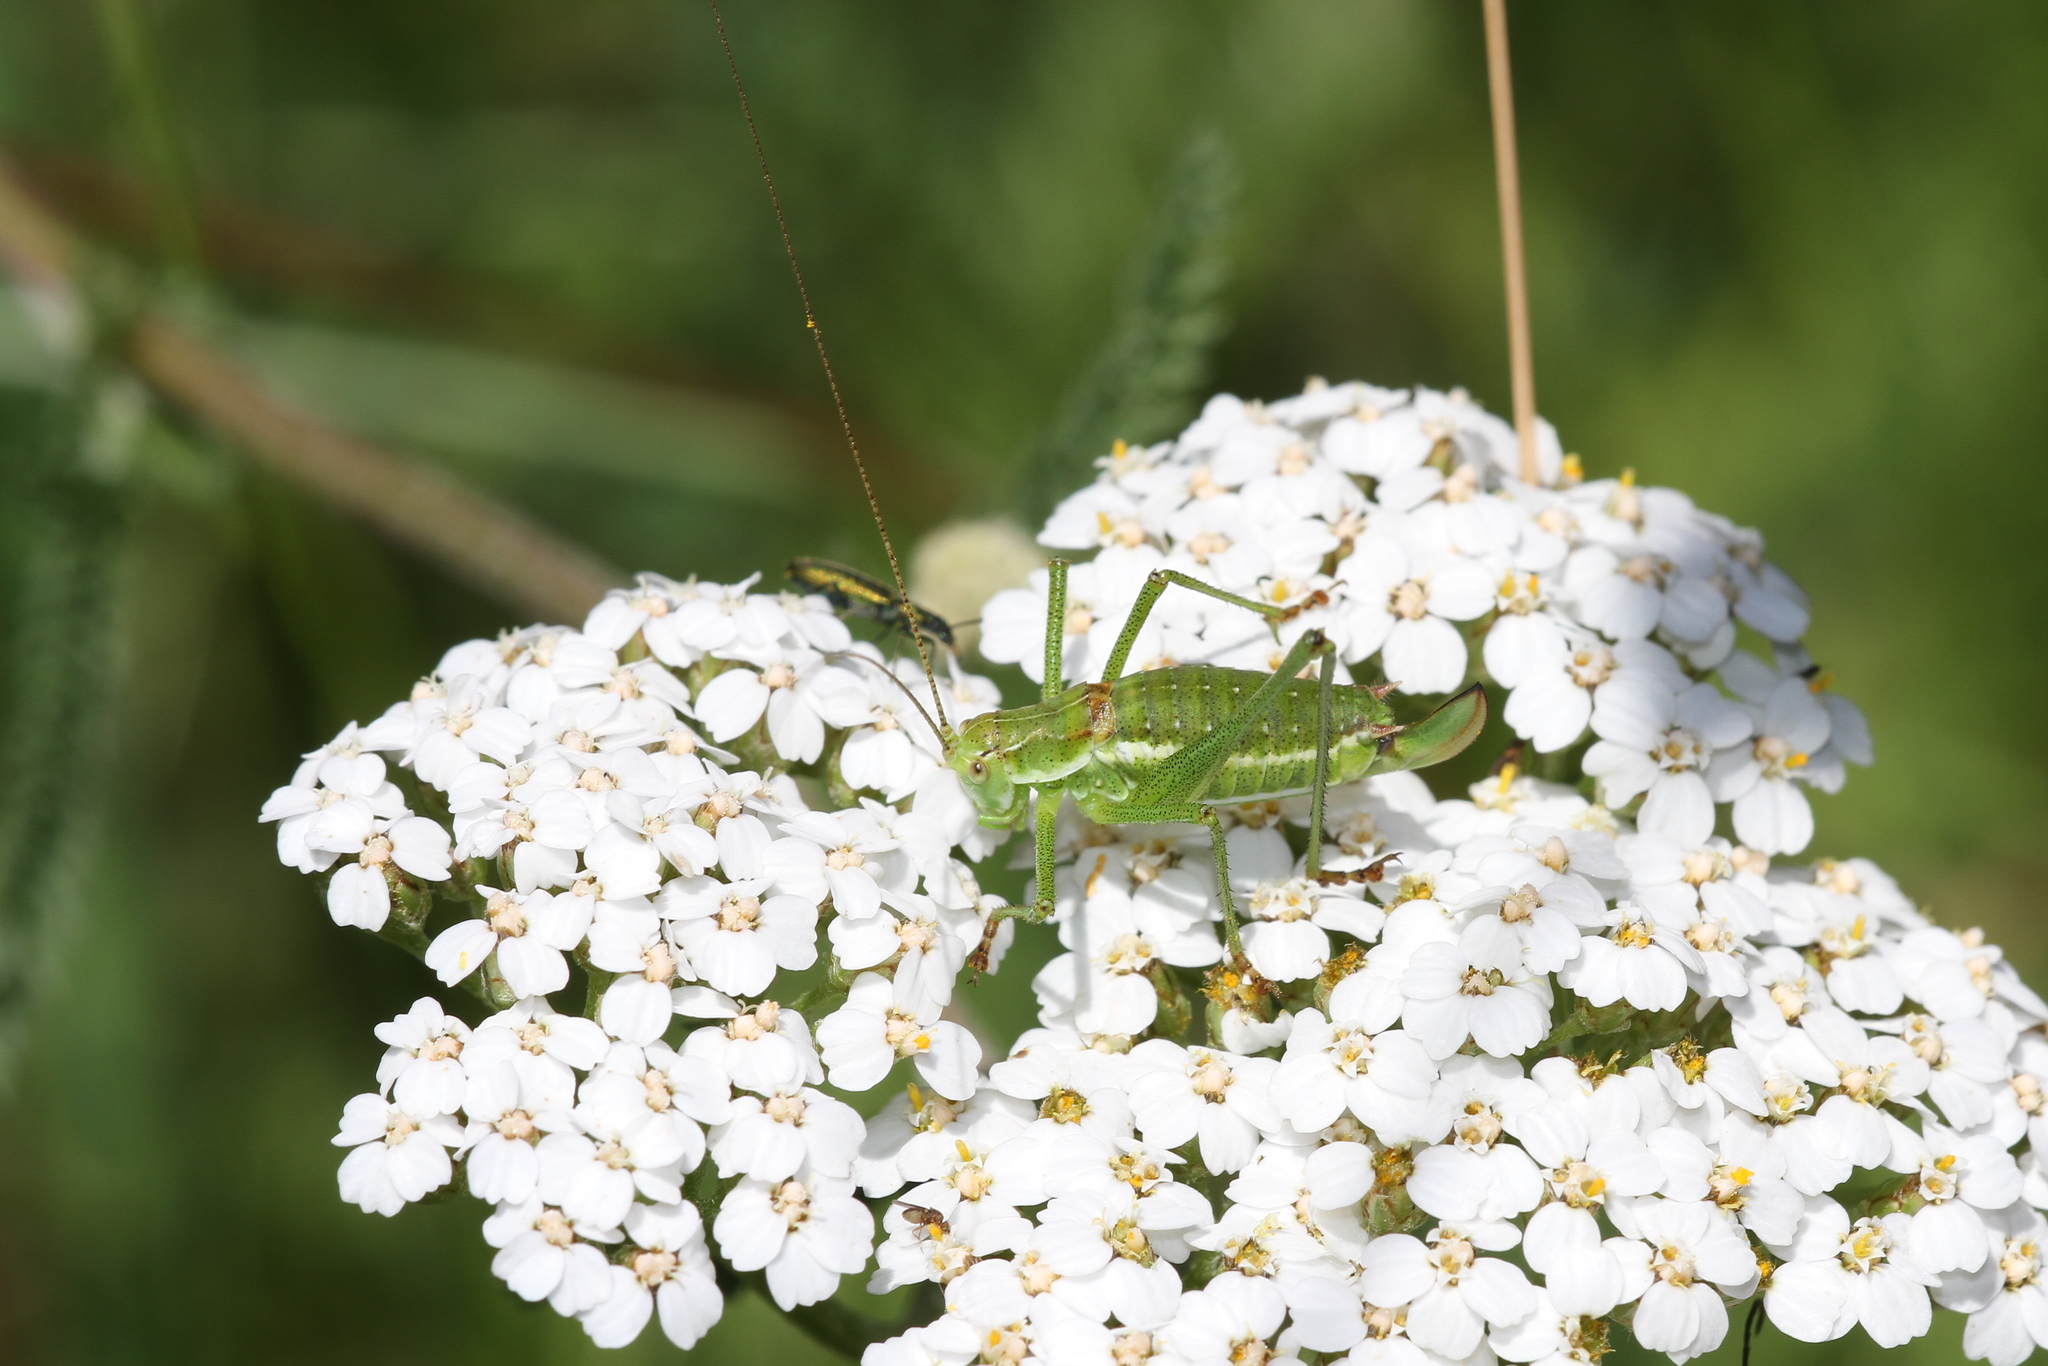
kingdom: Animalia
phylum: Arthropoda
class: Insecta
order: Orthoptera
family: Tettigoniidae
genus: Leptophyes
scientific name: Leptophyes albovittata
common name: Striped bush-cricket
